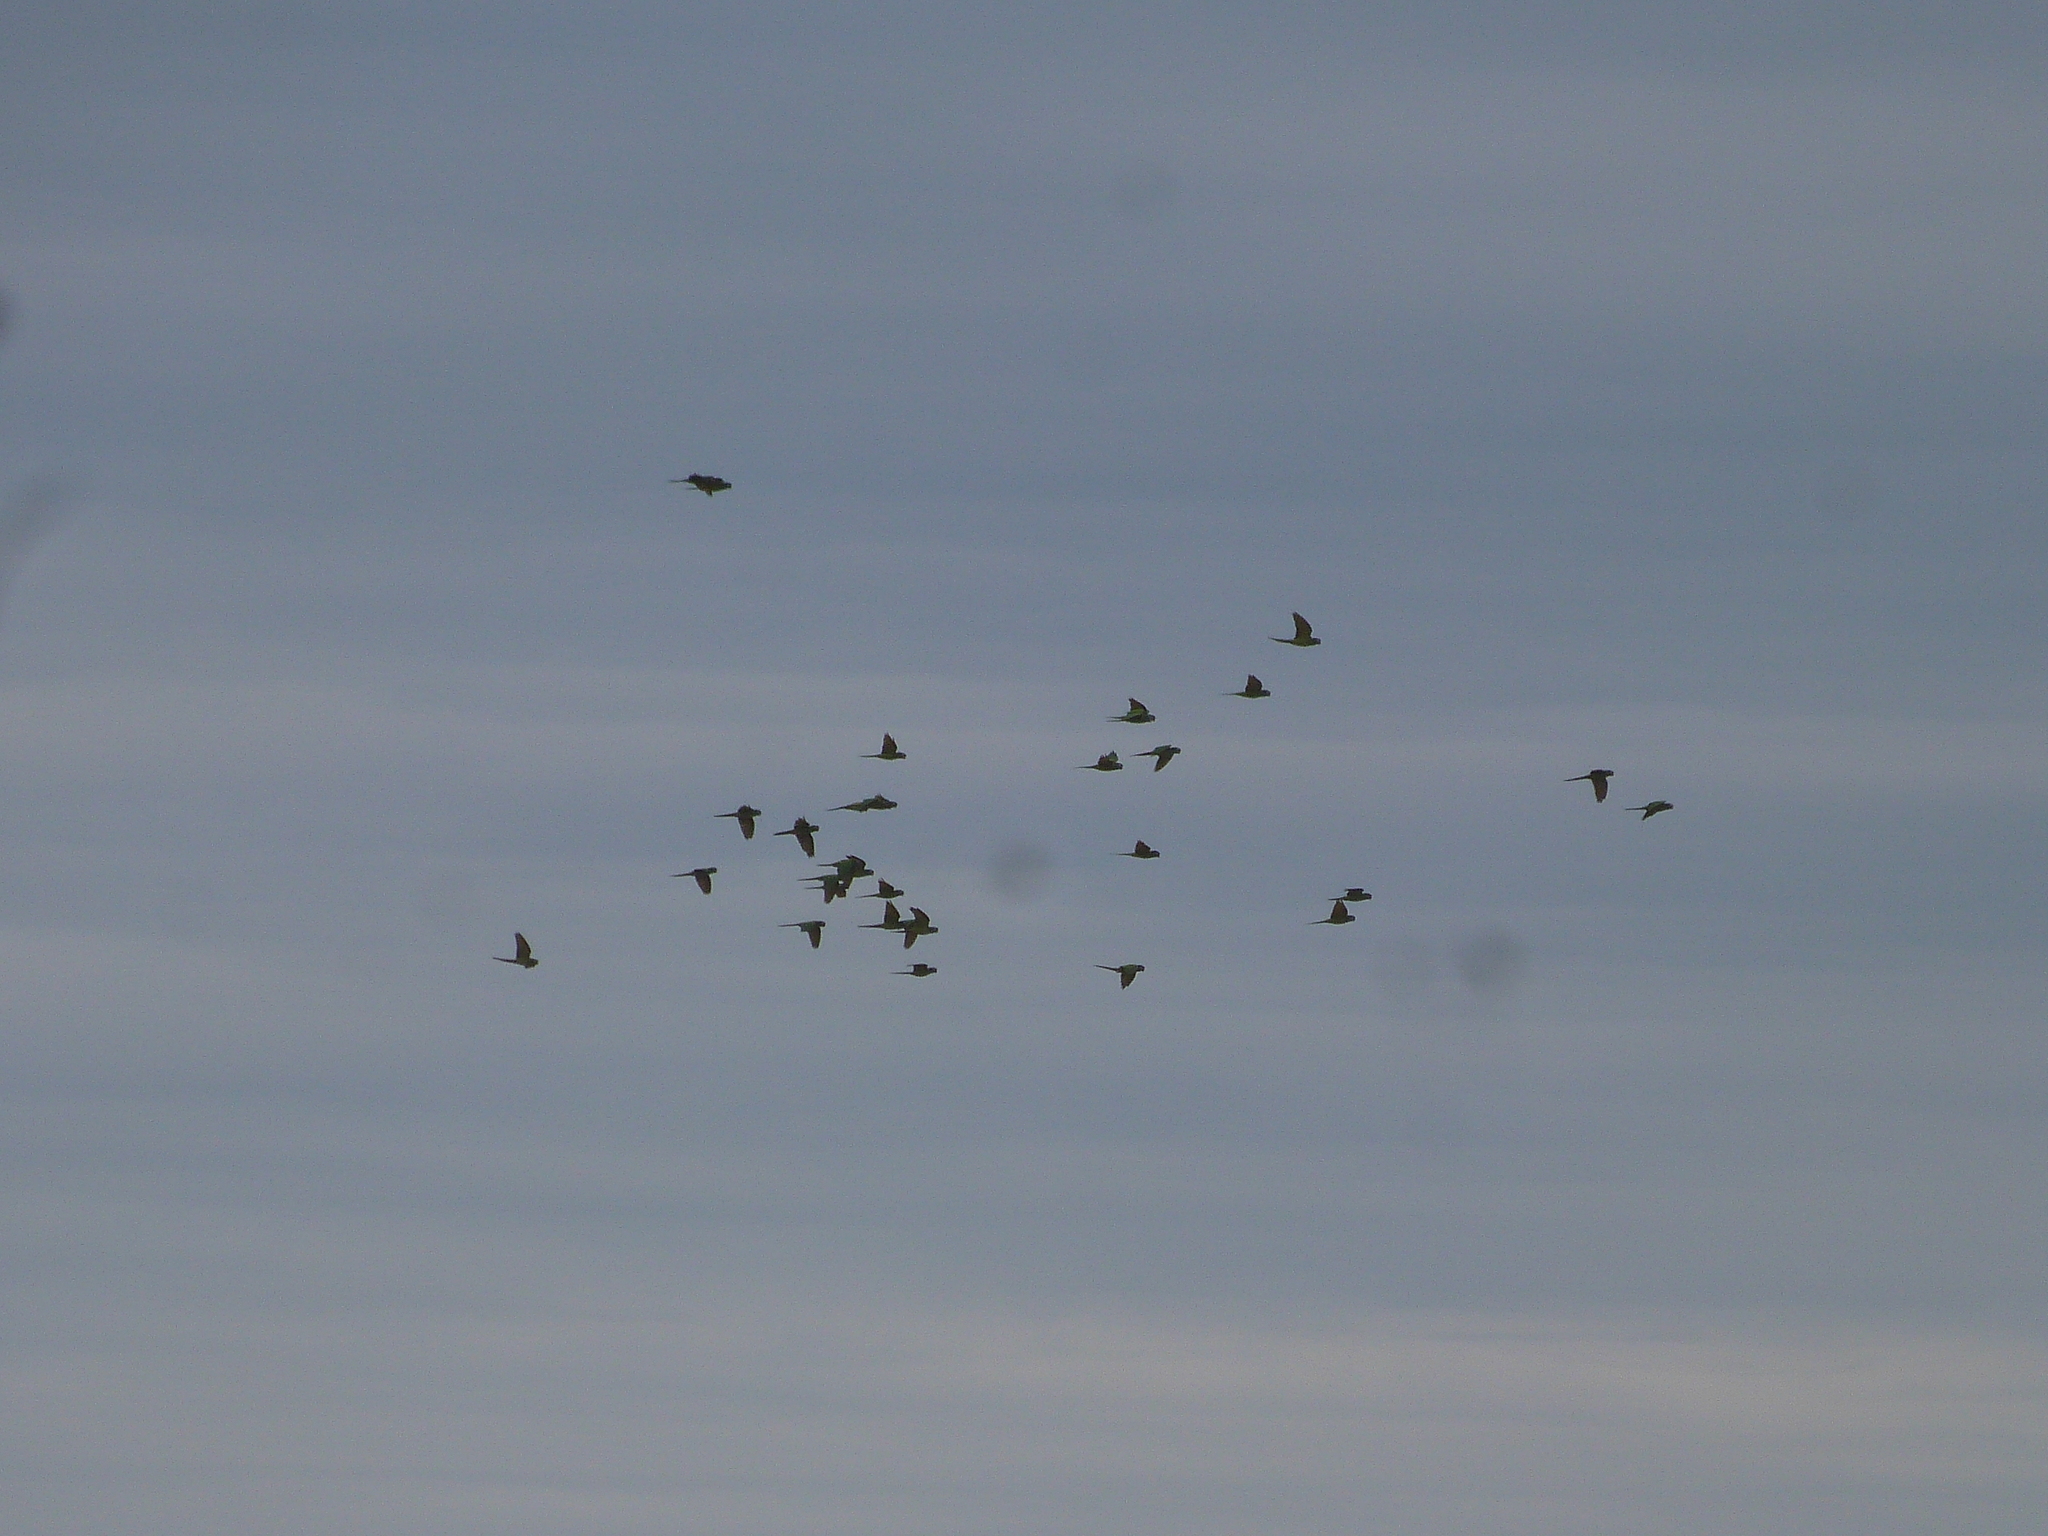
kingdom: Animalia
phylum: Chordata
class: Aves
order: Psittaciformes
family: Psittacidae
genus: Aratinga
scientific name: Aratinga acuticaudata
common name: Blue-crowned parakeet
